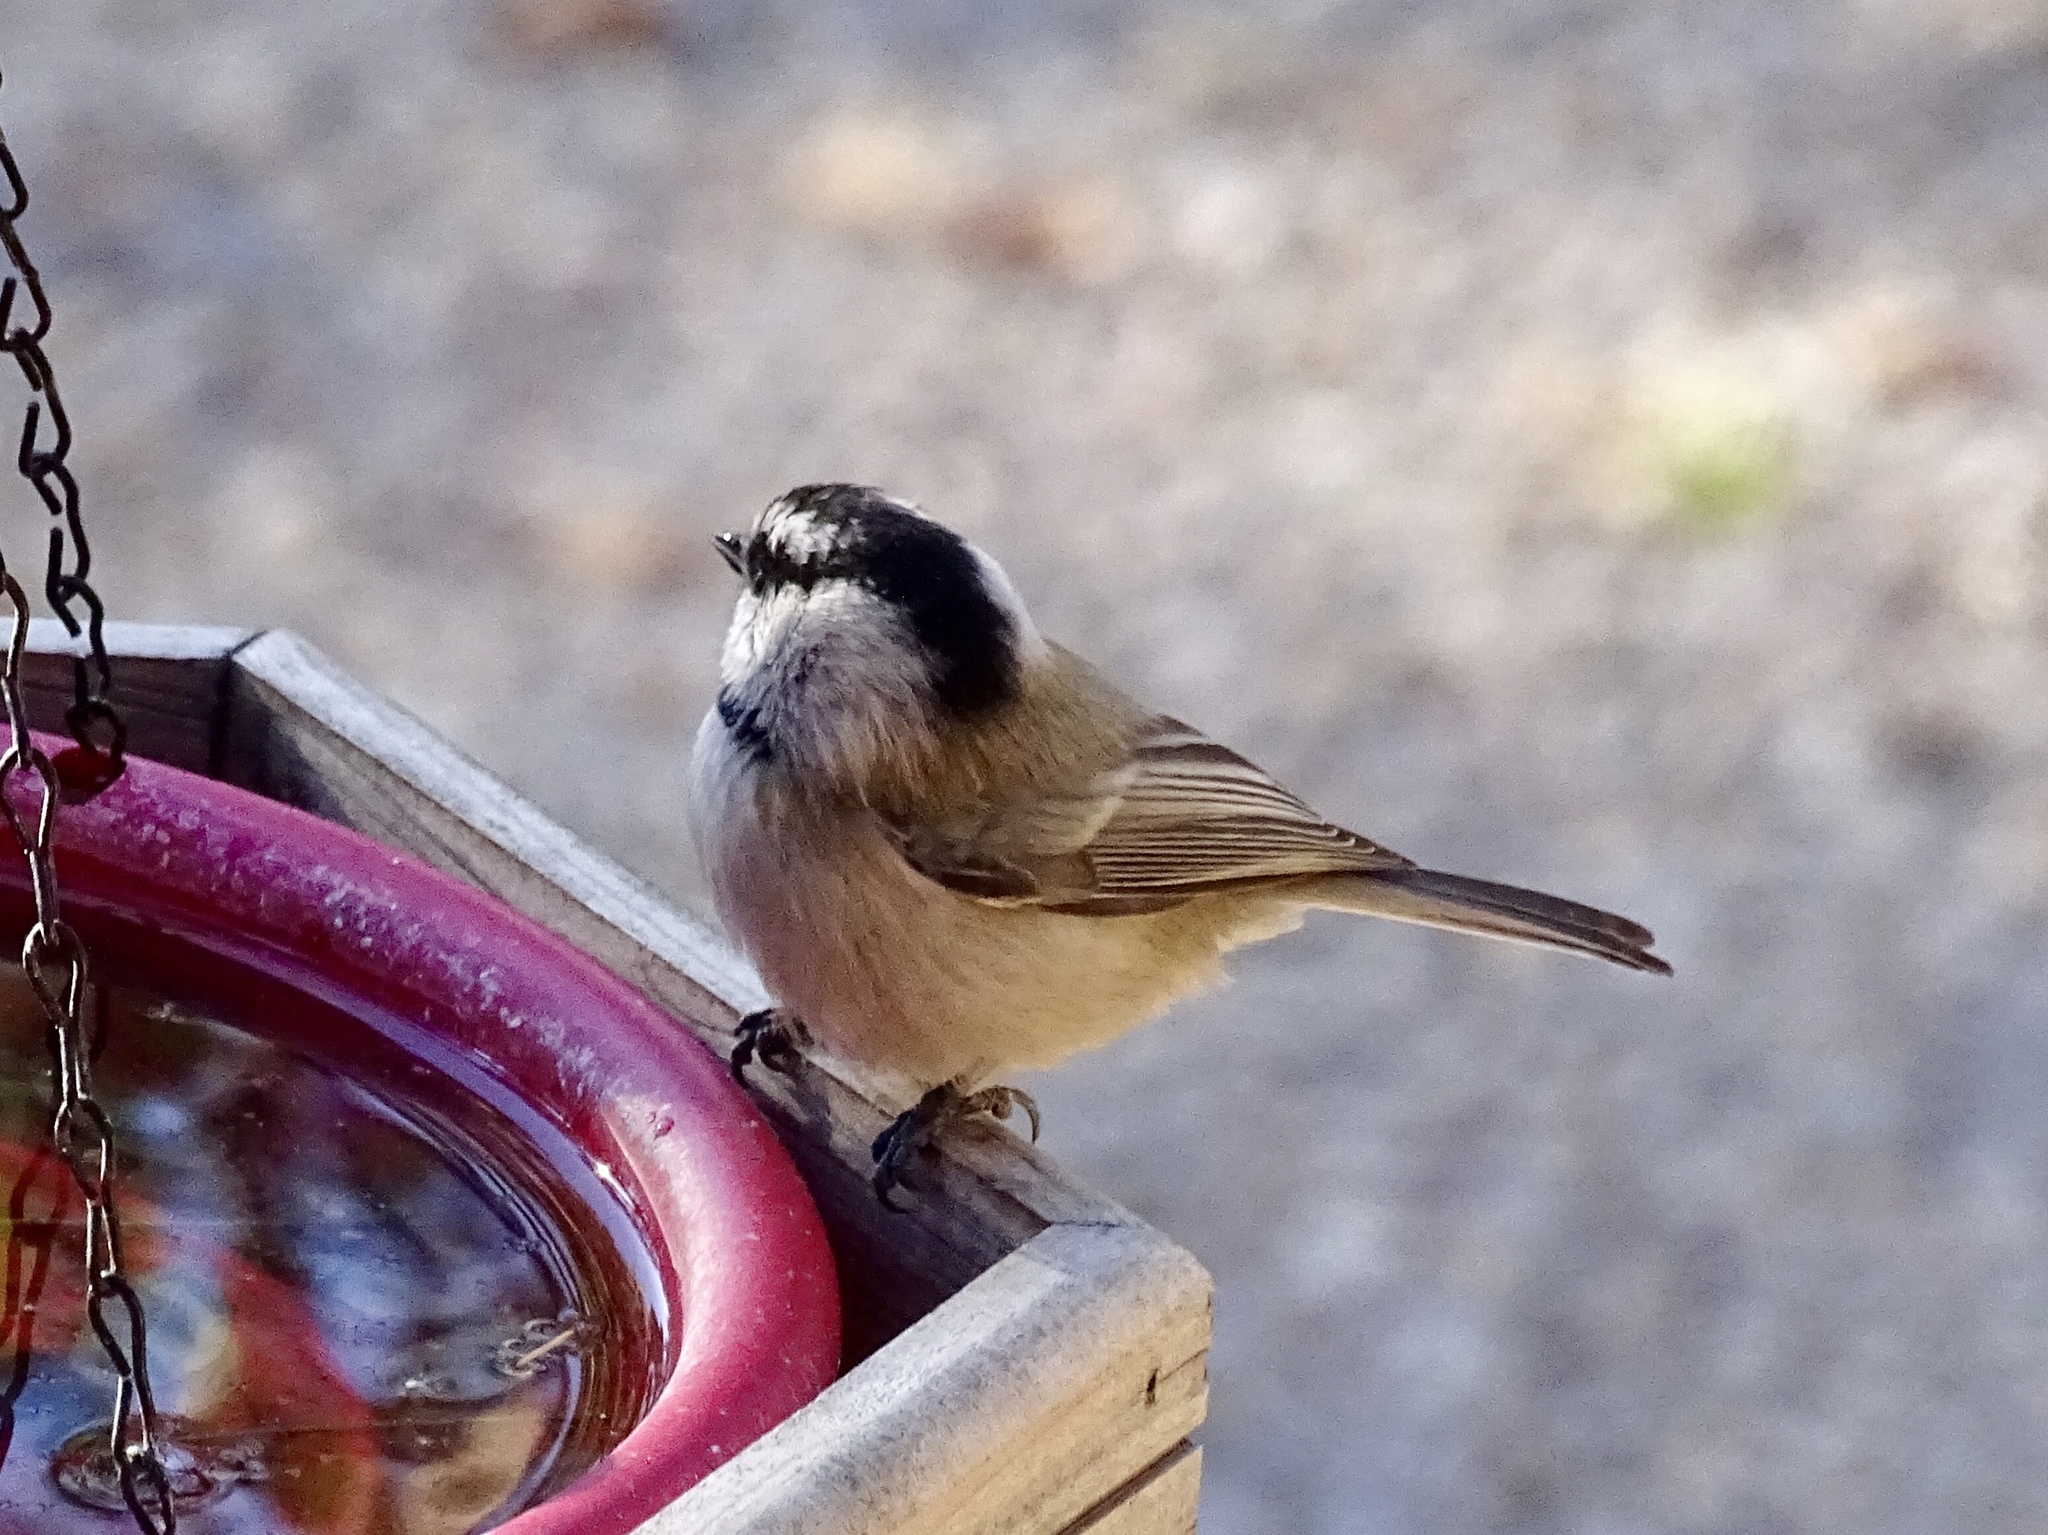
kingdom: Animalia
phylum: Chordata
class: Aves
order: Passeriformes
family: Paridae
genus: Poecile
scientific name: Poecile gambeli
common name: Mountain chickadee
